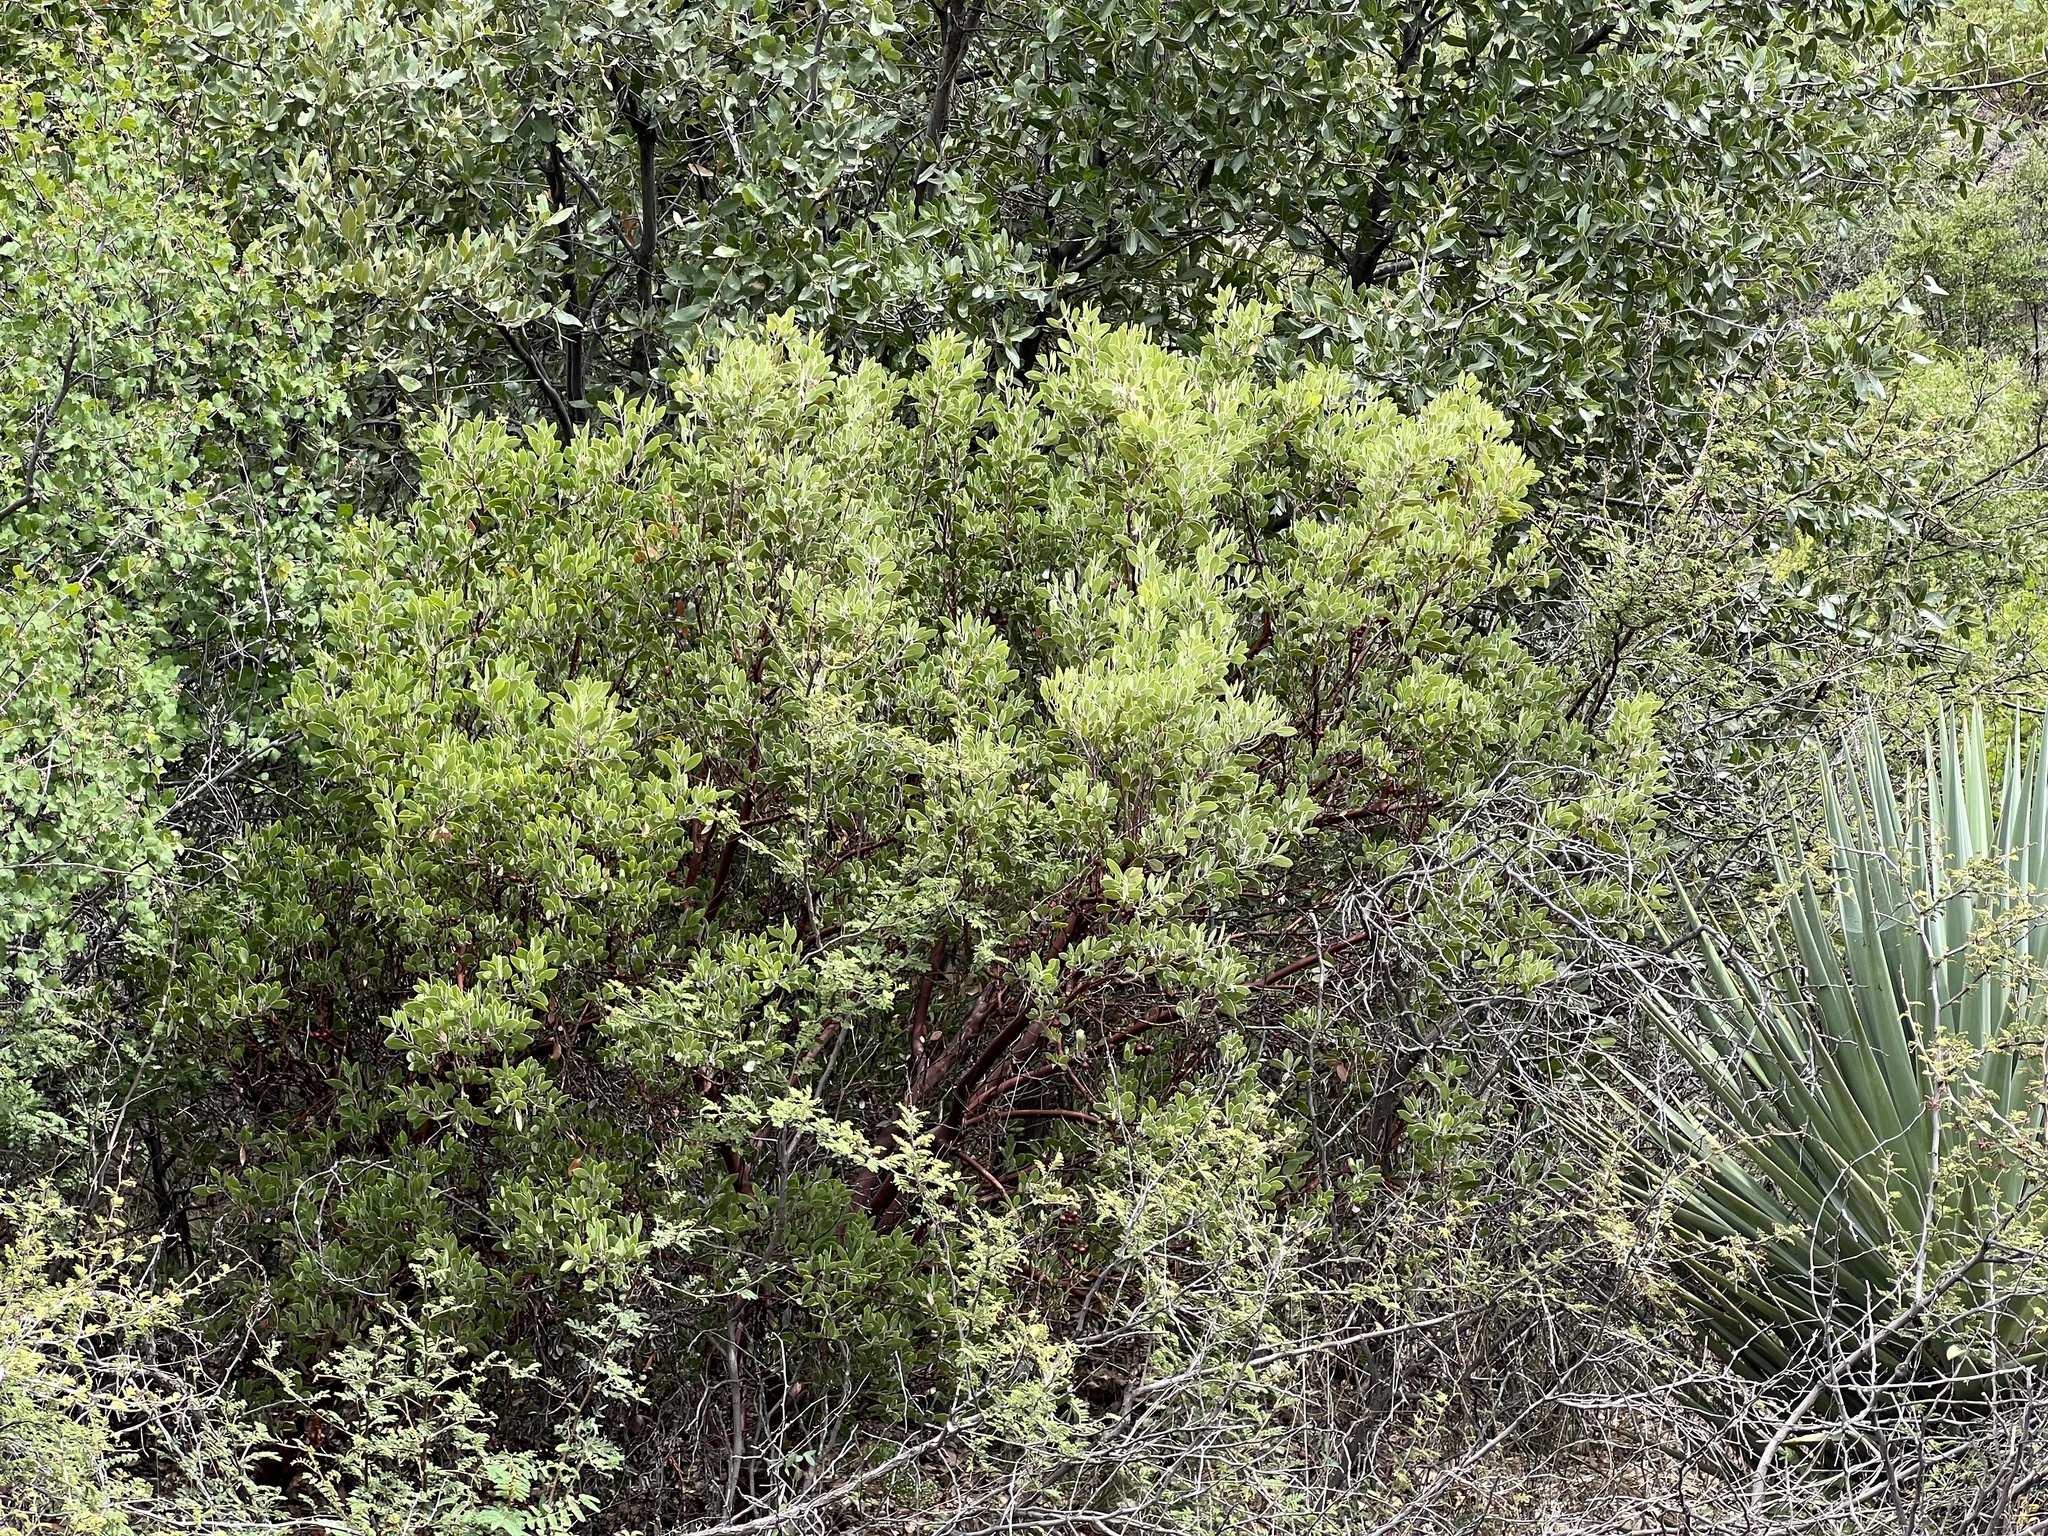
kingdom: Plantae
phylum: Tracheophyta
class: Magnoliopsida
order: Ericales
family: Ericaceae
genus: Arctostaphylos
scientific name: Arctostaphylos pungens
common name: Mexican manzanita
